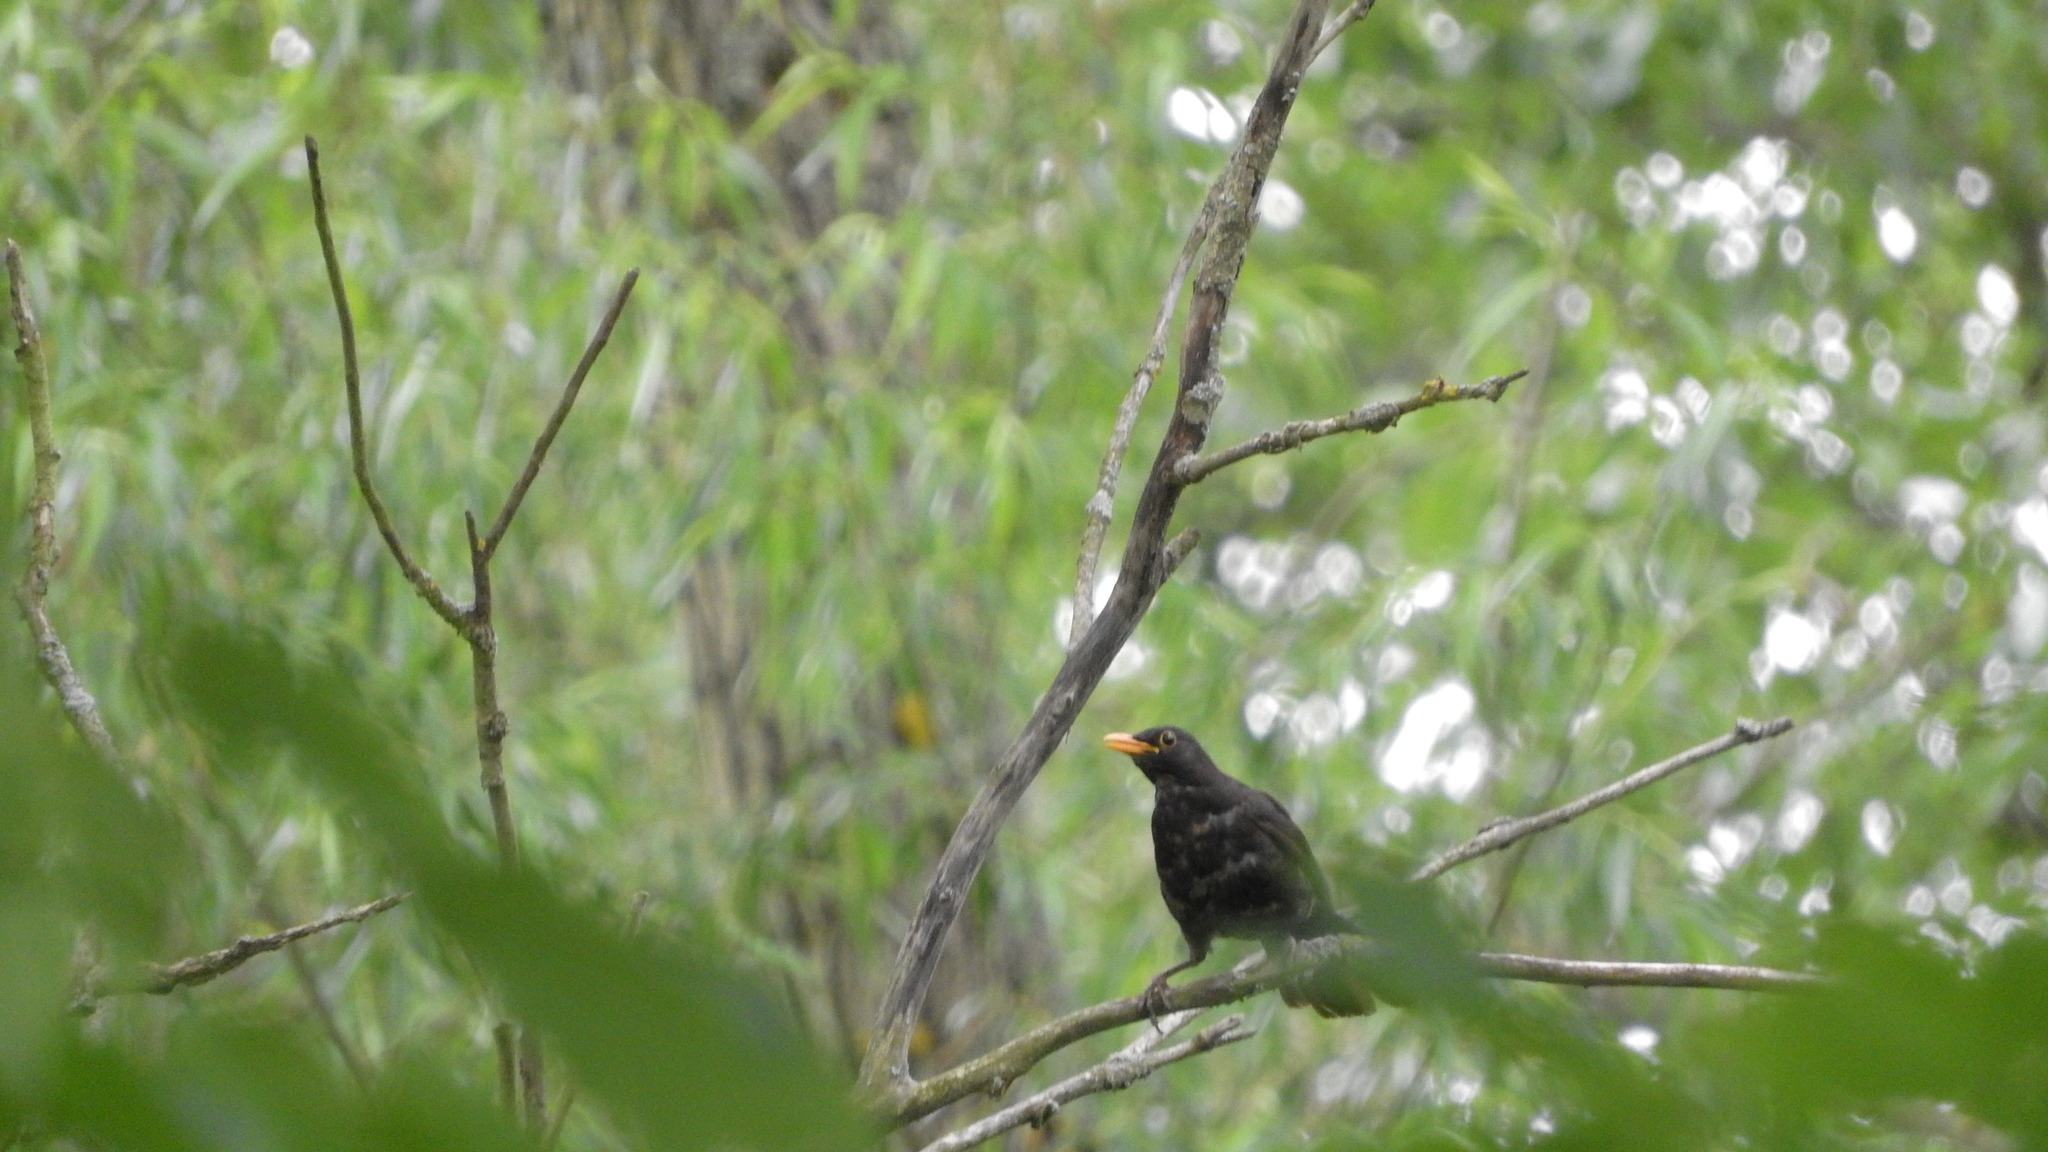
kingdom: Animalia
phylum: Chordata
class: Aves
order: Passeriformes
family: Turdidae
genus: Turdus
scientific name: Turdus merula
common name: Common blackbird
